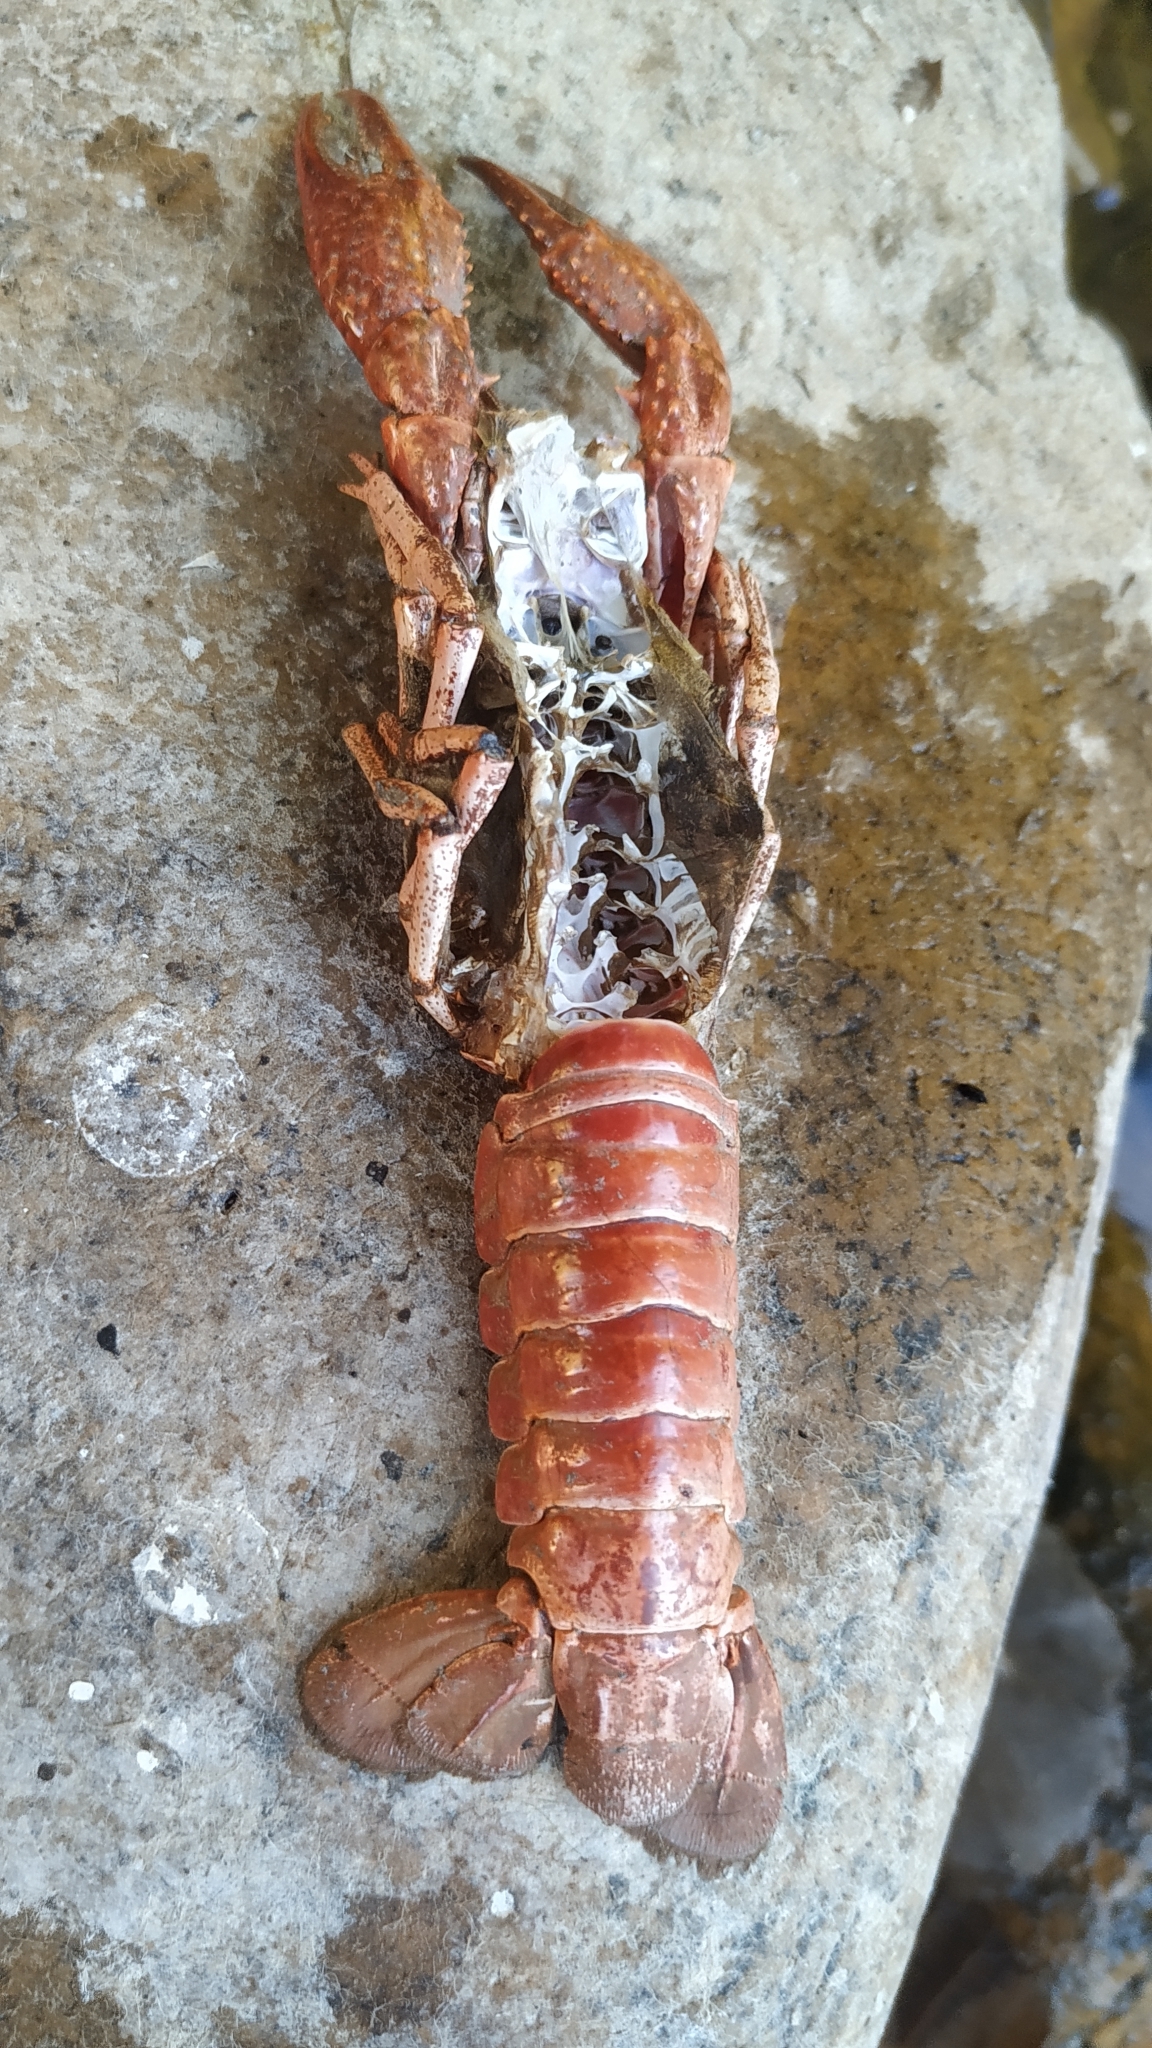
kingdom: Animalia
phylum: Arthropoda
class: Malacostraca
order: Decapoda
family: Cambaridae
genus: Procambarus
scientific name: Procambarus clarkii
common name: Red swamp crayfish
